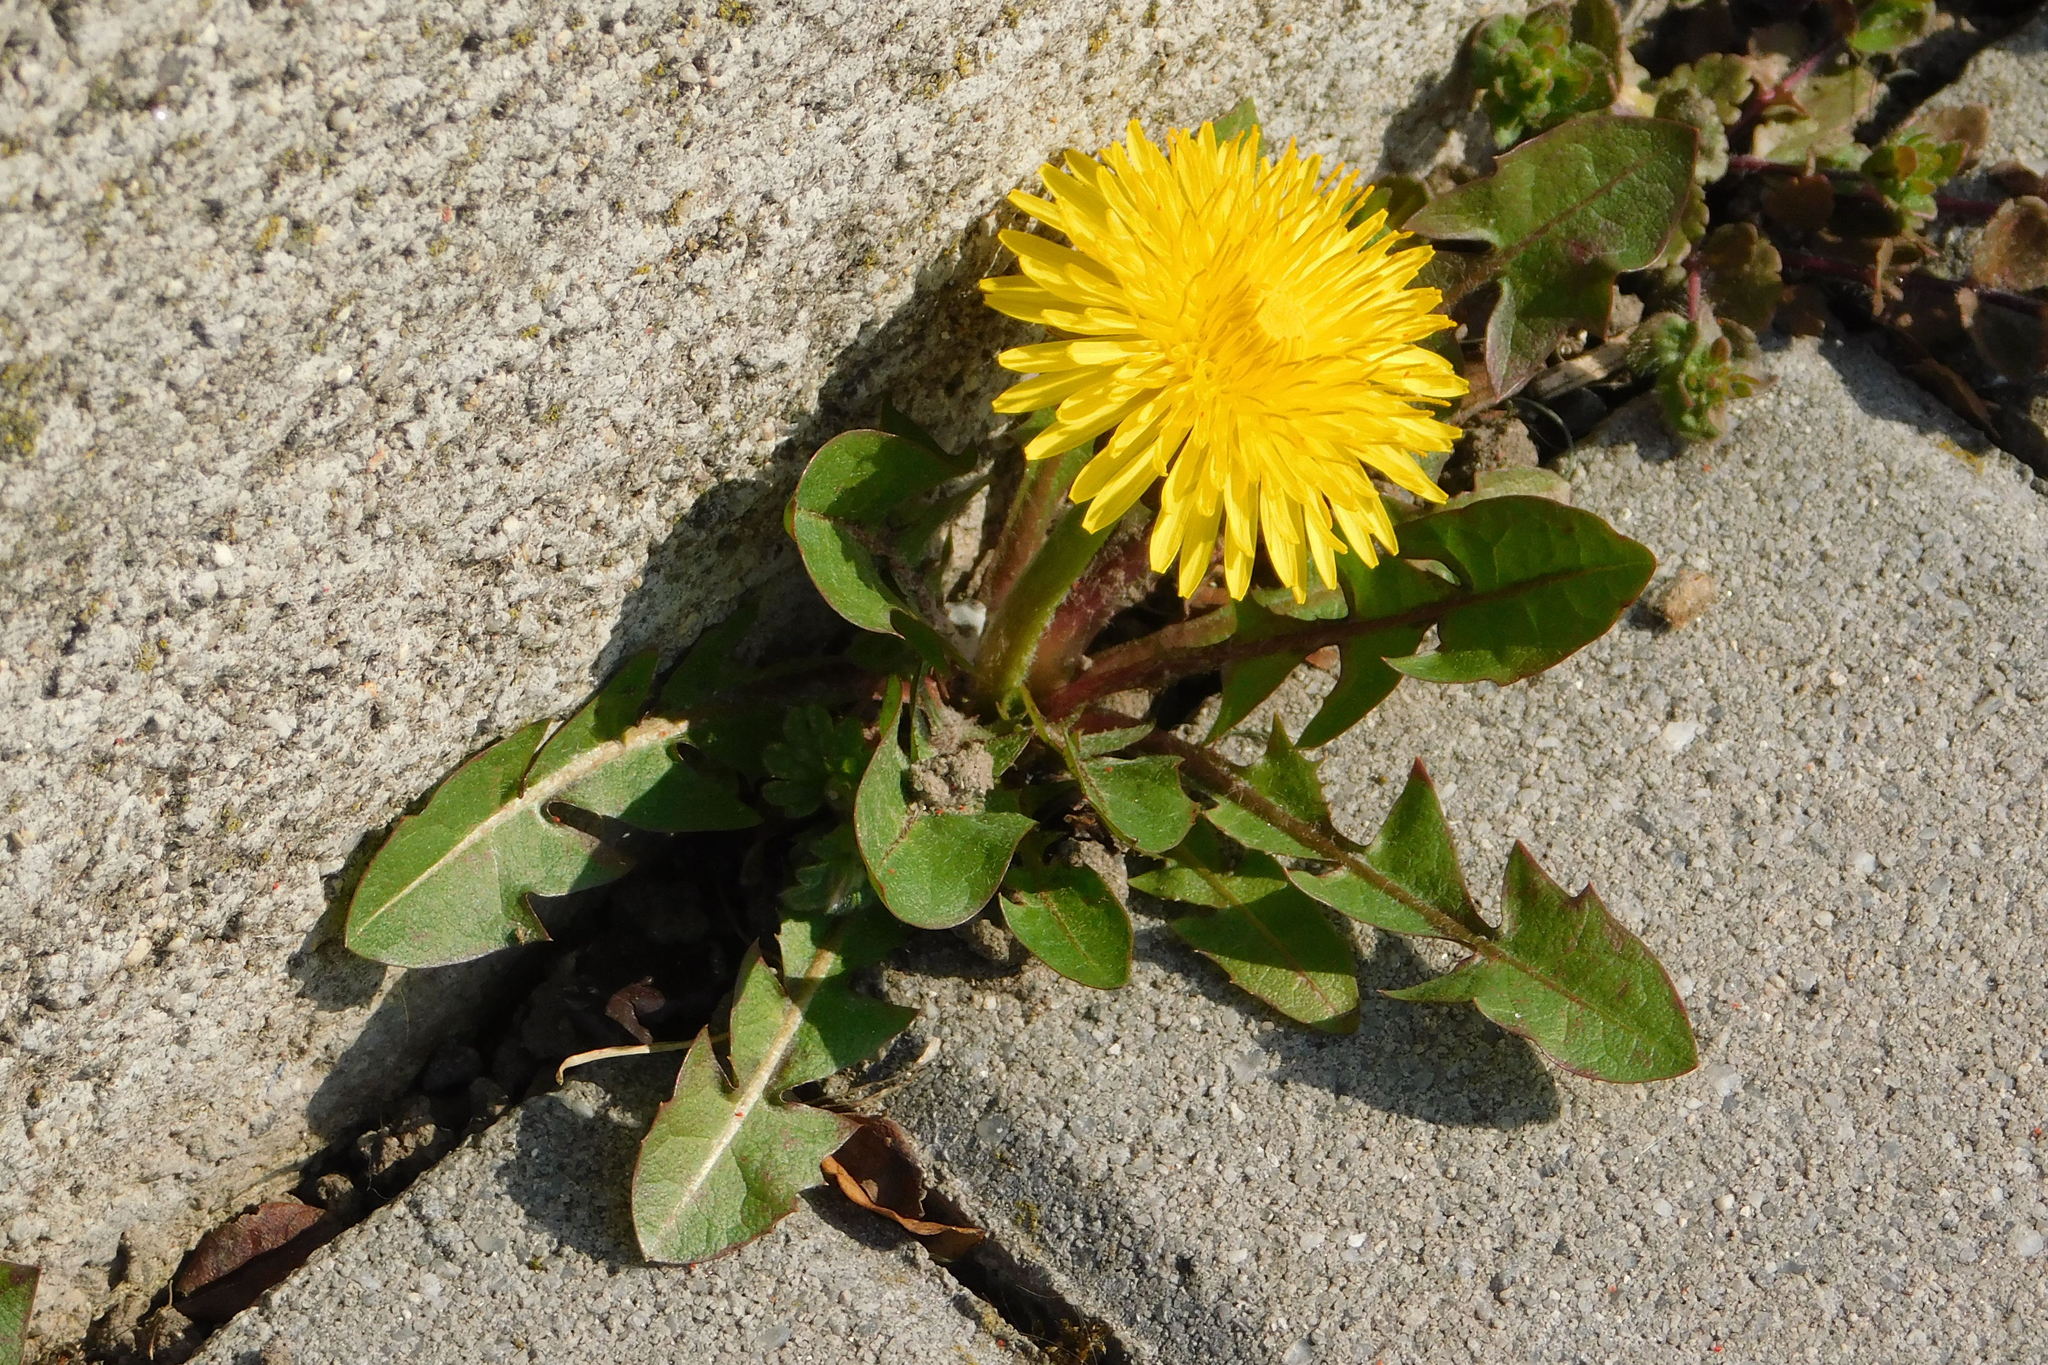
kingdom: Plantae
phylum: Tracheophyta
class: Magnoliopsida
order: Asterales
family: Asteraceae
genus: Taraxacum
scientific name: Taraxacum officinale
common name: Common dandelion
